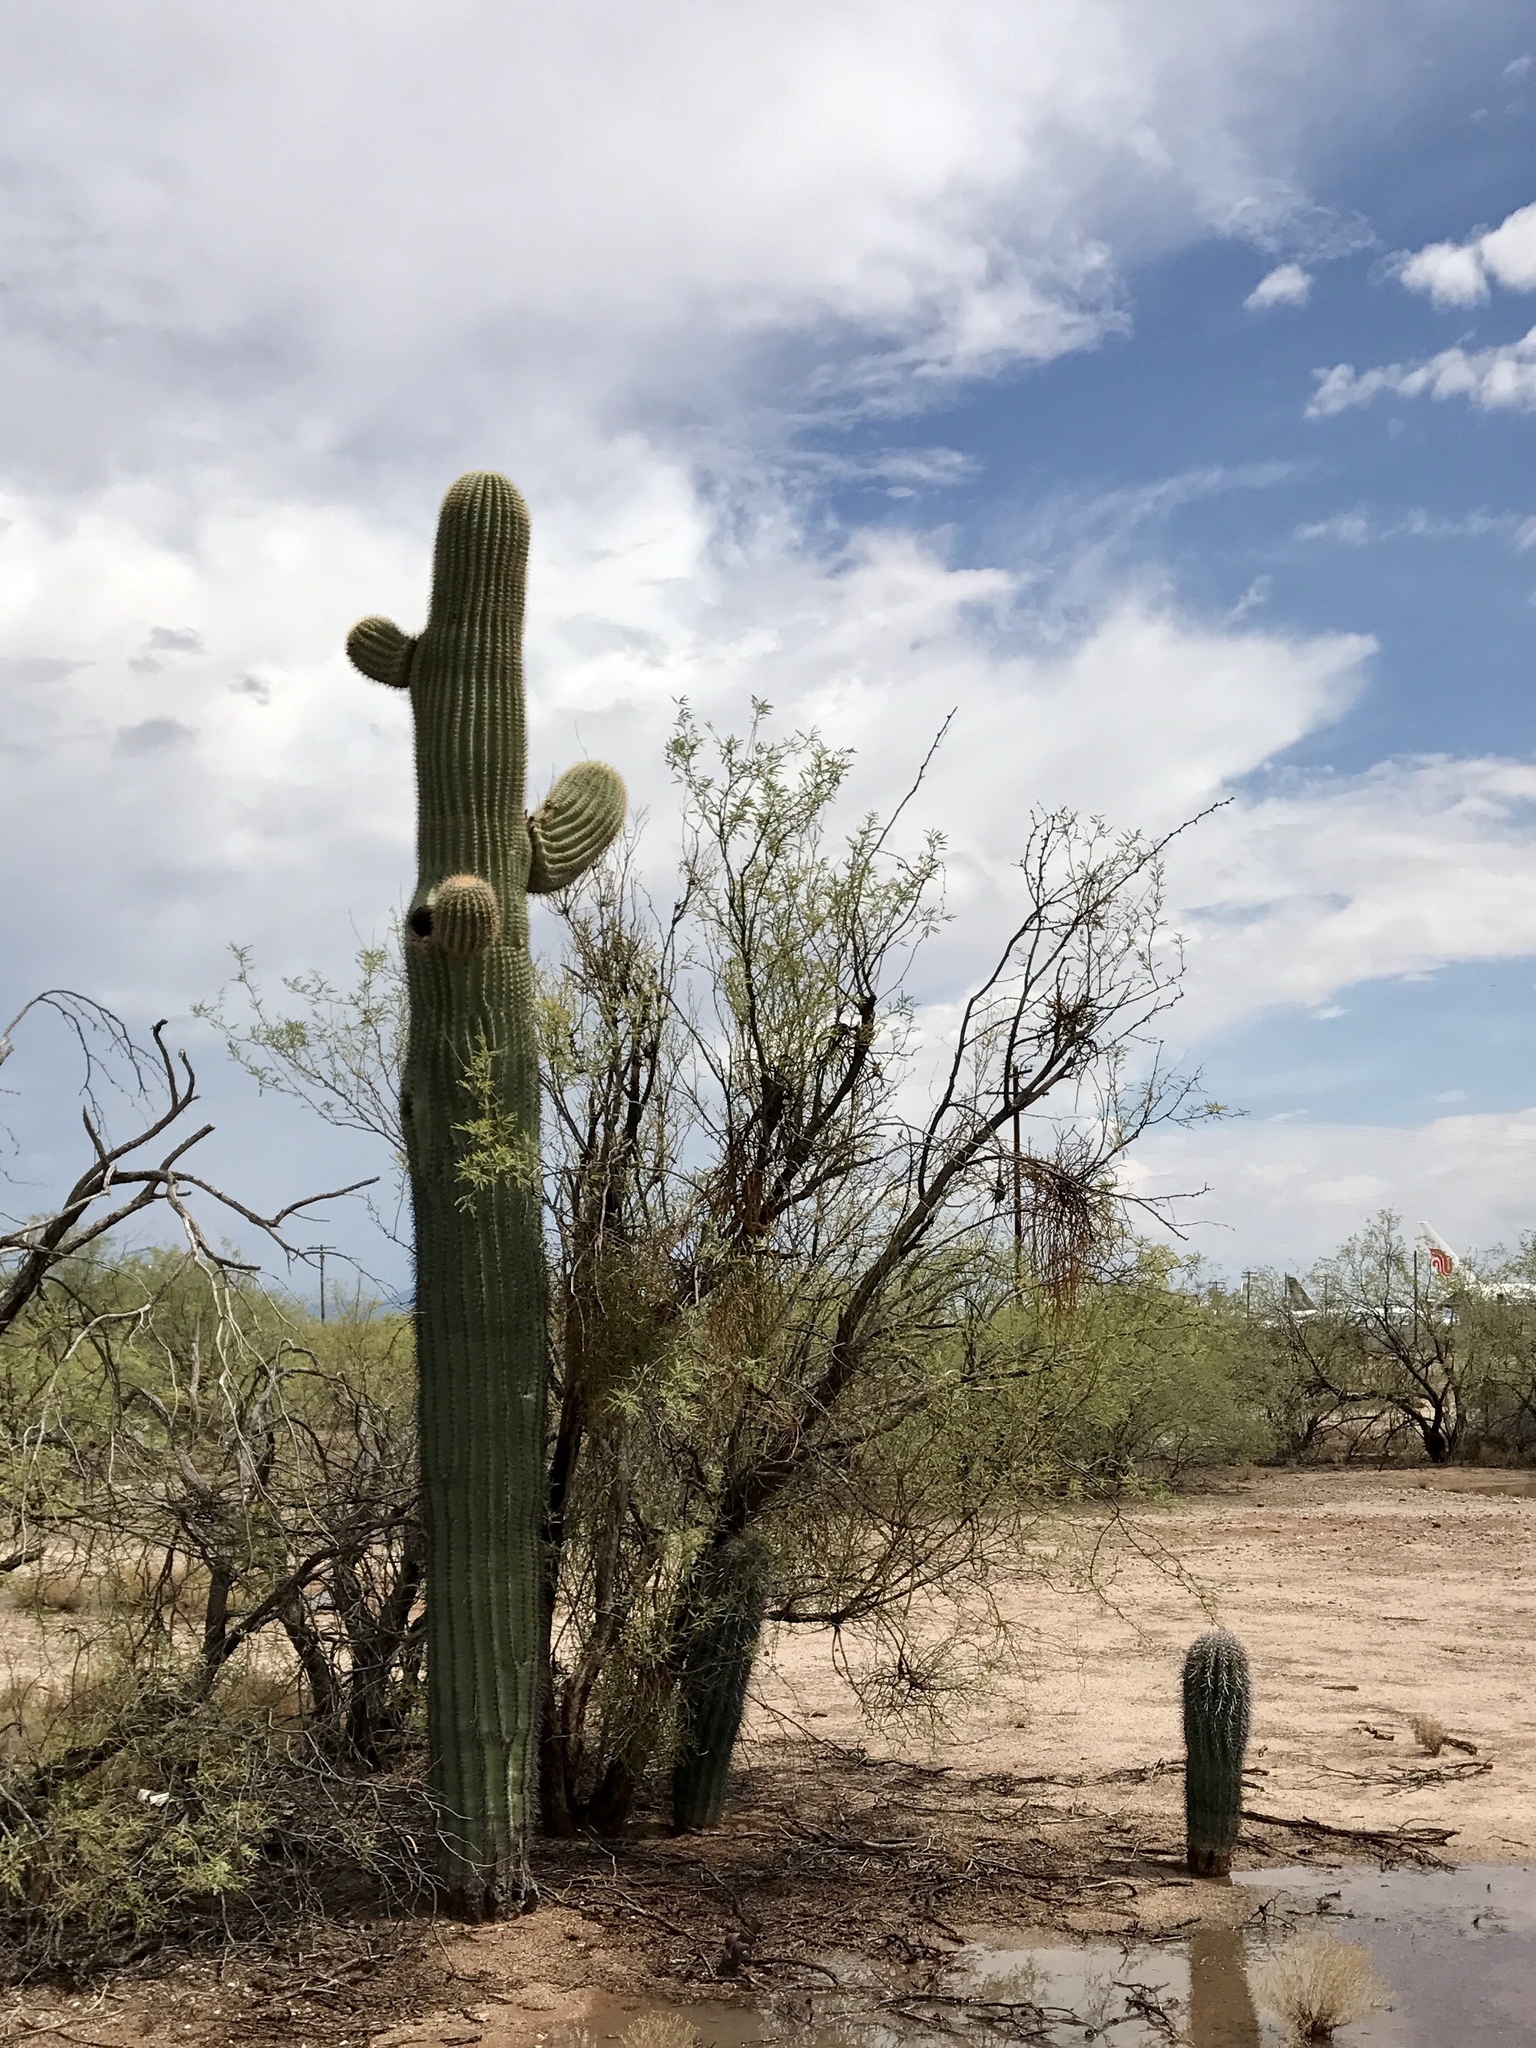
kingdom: Plantae
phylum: Tracheophyta
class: Magnoliopsida
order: Caryophyllales
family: Cactaceae
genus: Carnegiea
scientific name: Carnegiea gigantea
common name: Saguaro
